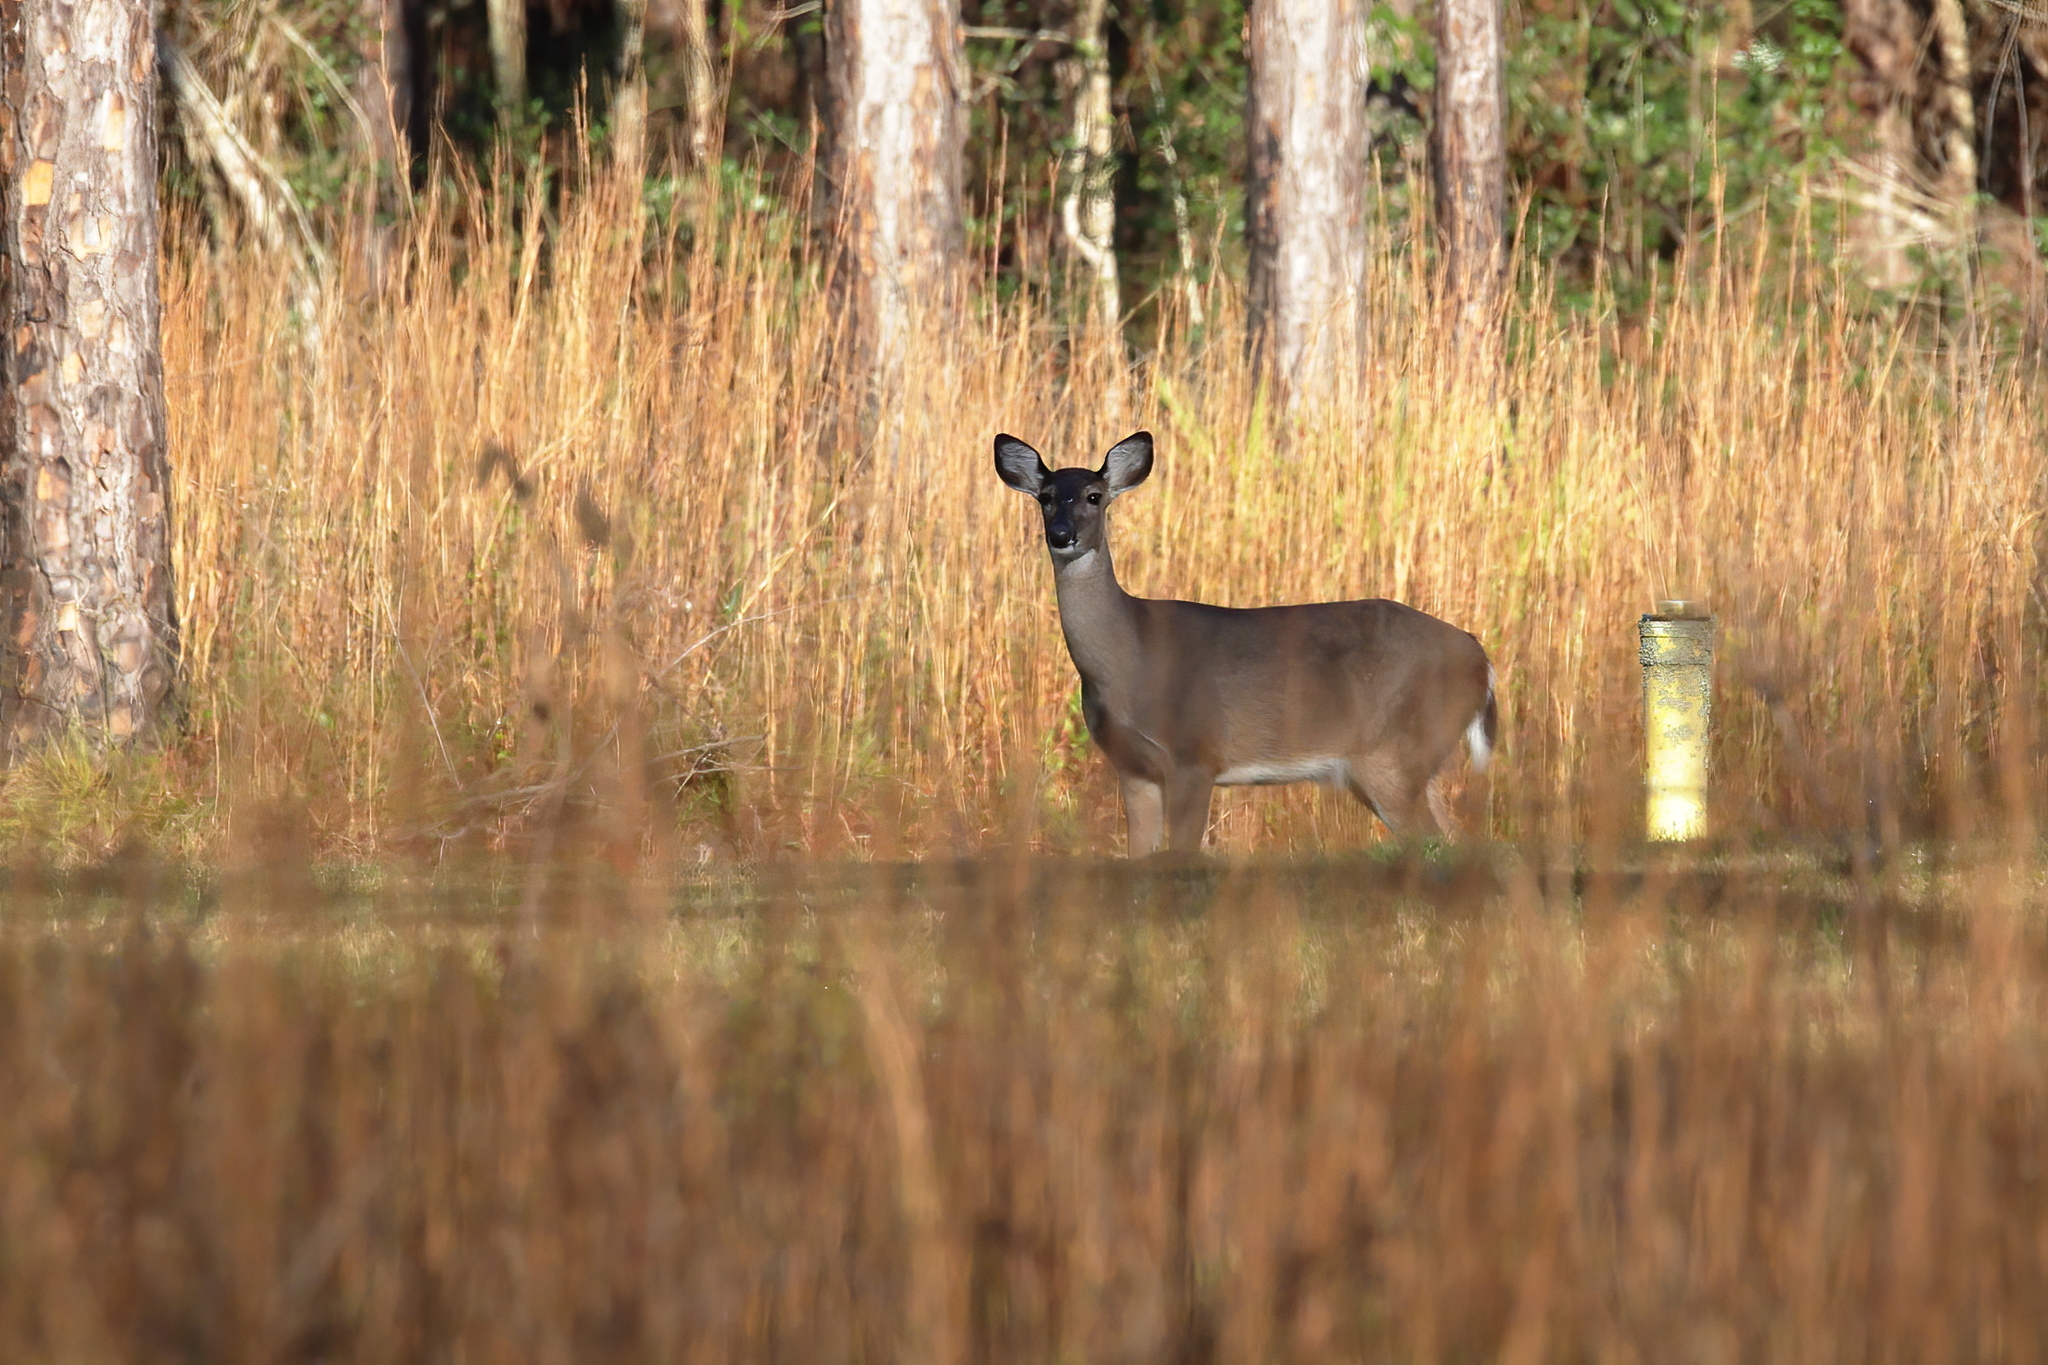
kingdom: Animalia
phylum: Chordata
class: Mammalia
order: Artiodactyla
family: Cervidae
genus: Odocoileus
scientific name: Odocoileus virginianus
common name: White-tailed deer
